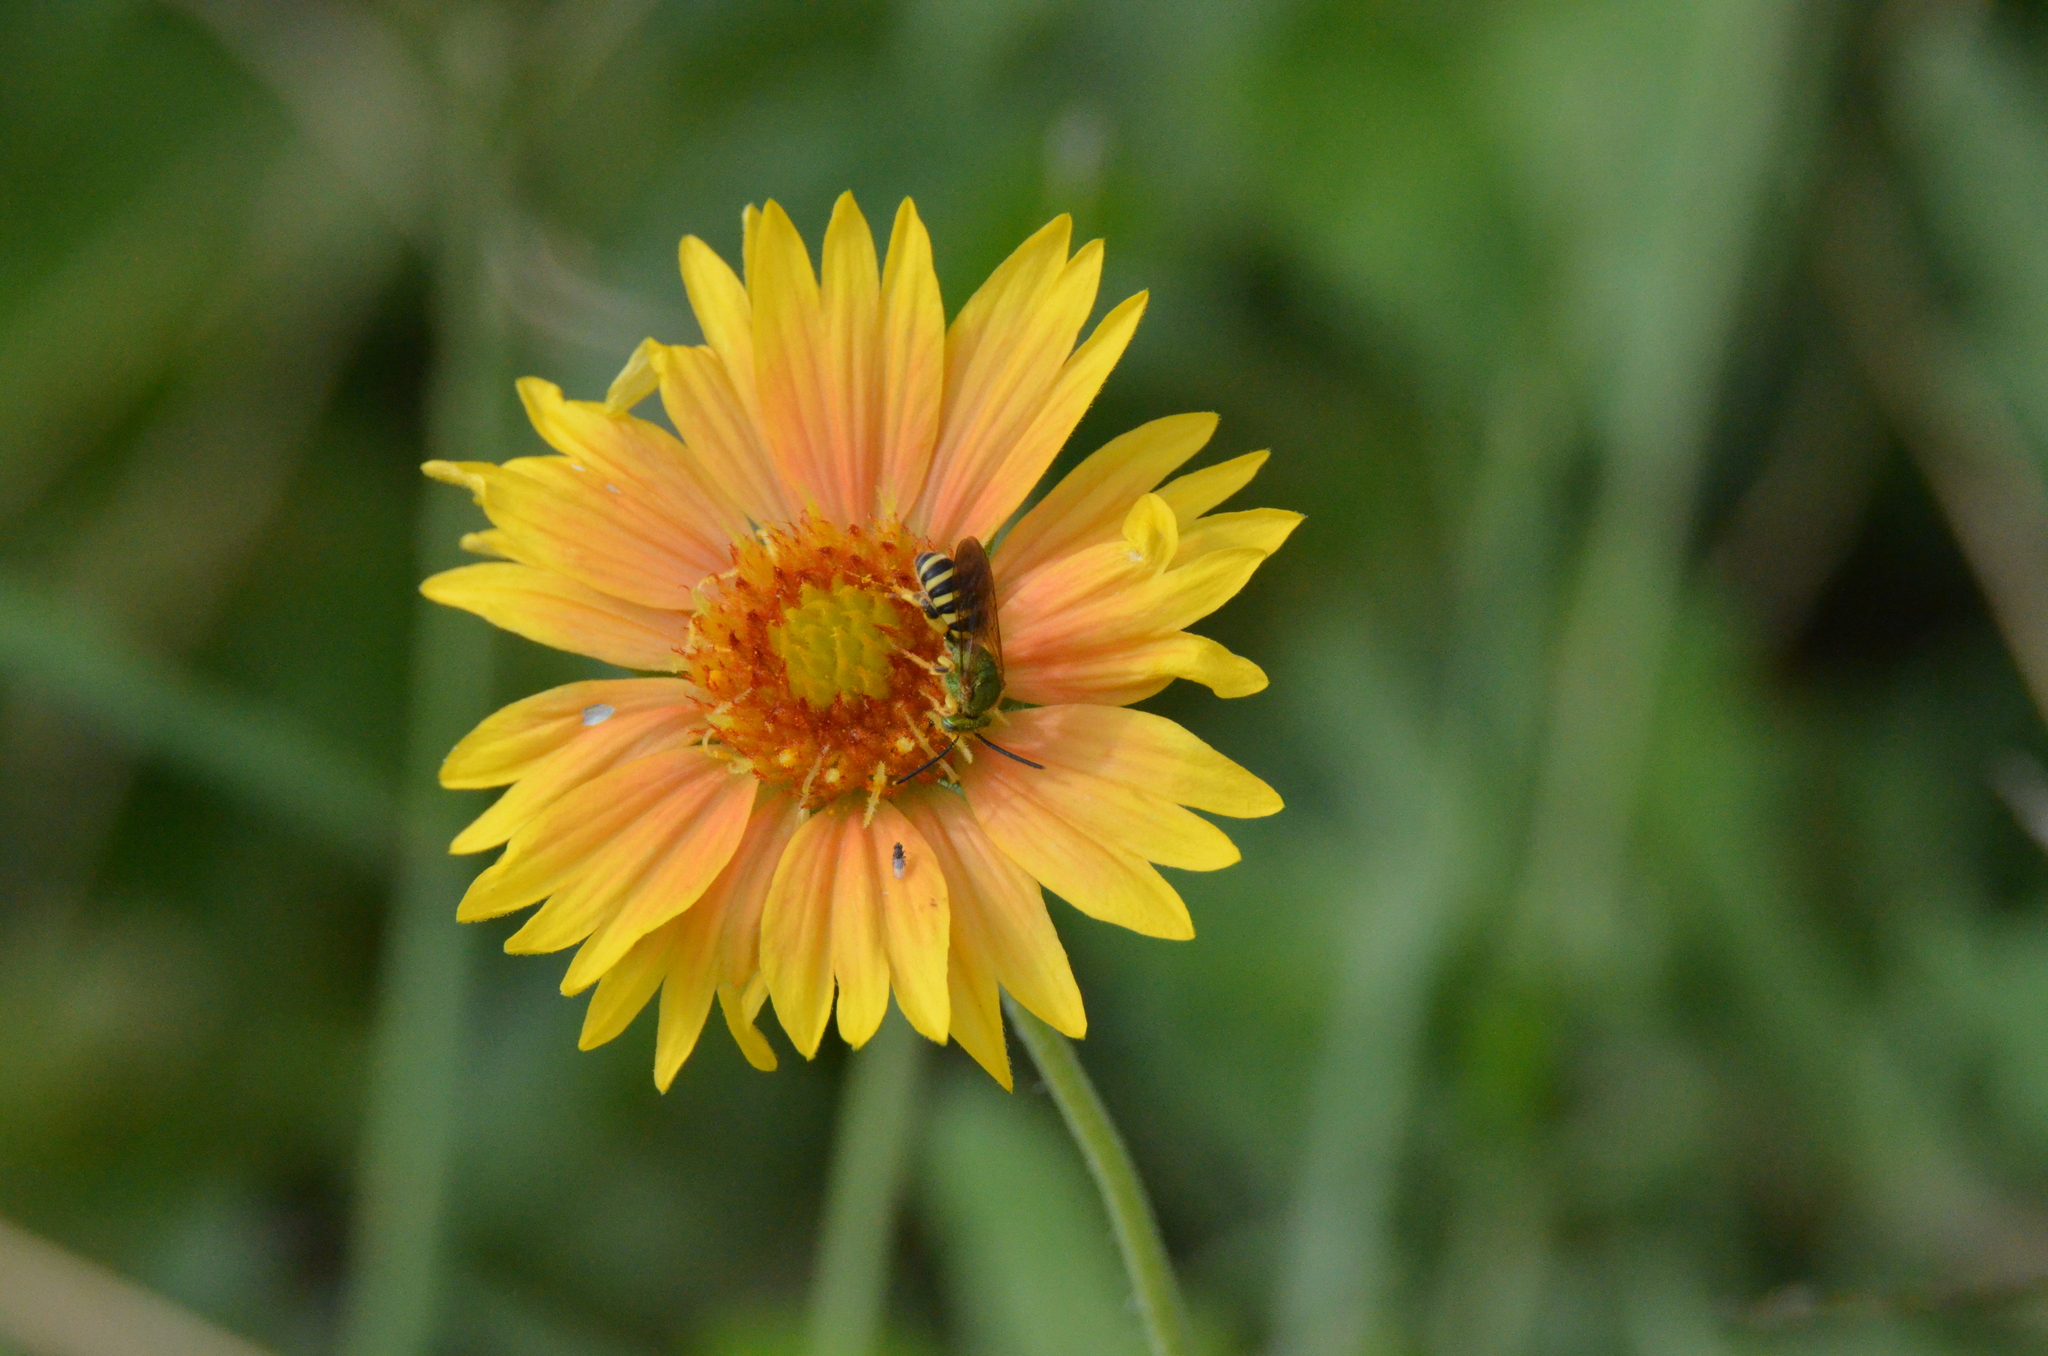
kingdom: Animalia
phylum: Arthropoda
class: Insecta
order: Hymenoptera
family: Halictidae
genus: Agapostemon
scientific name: Agapostemon splendens
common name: Brown-winged striped sweat bee
